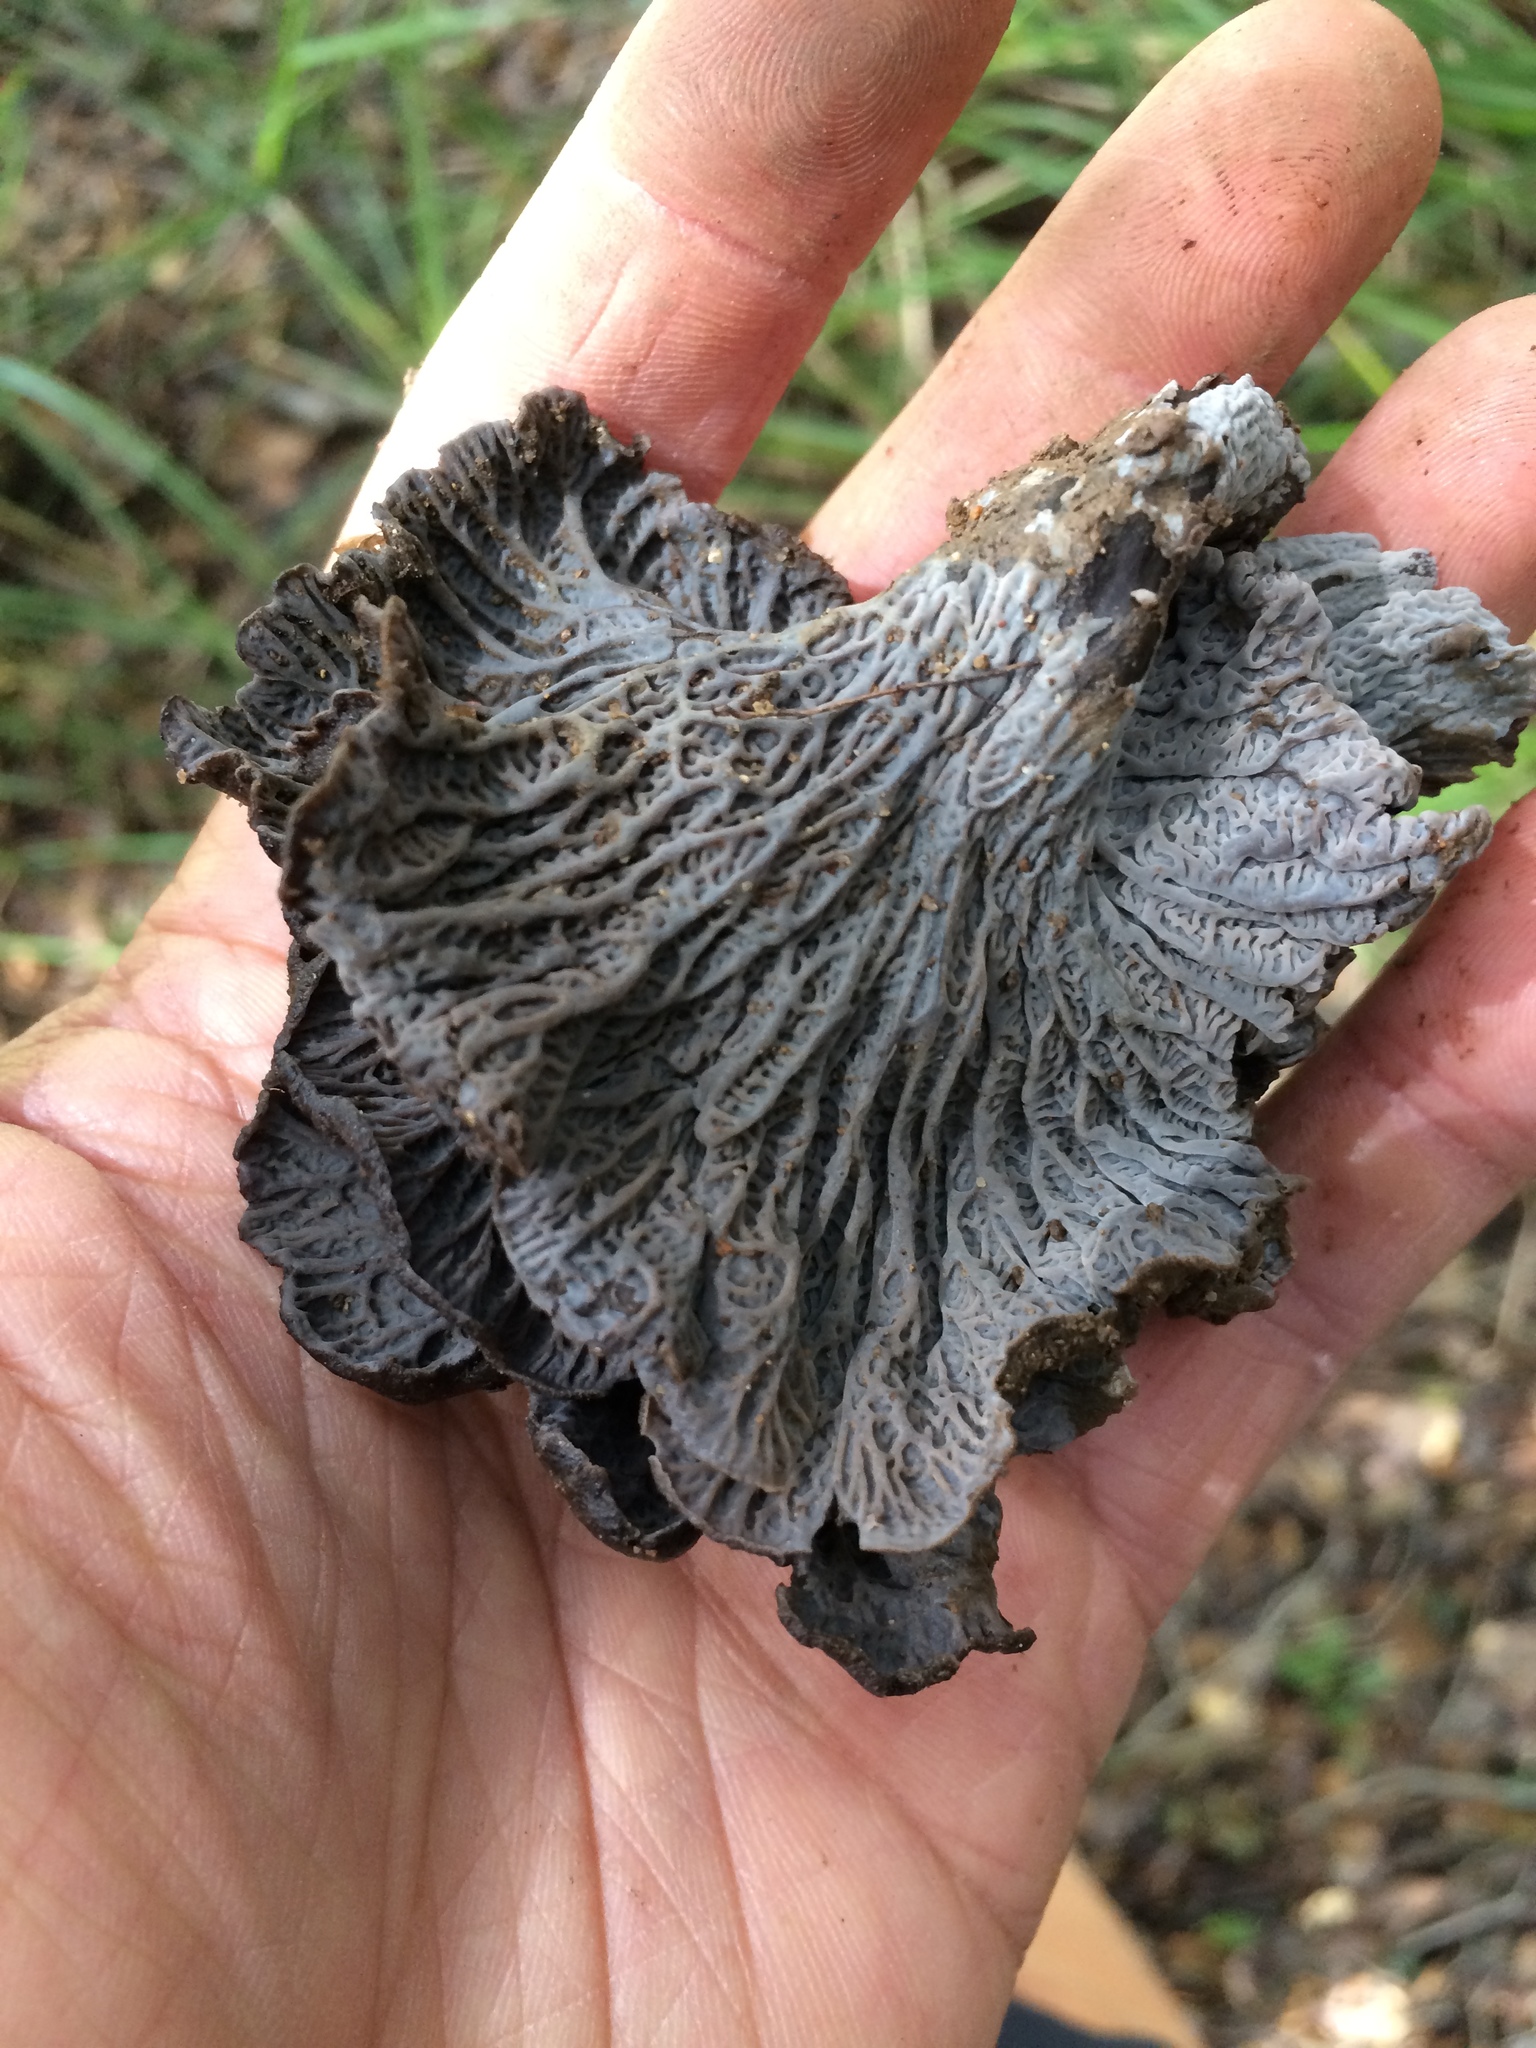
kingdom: Fungi
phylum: Basidiomycota
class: Agaricomycetes
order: Cantharellales
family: Hydnaceae
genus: Craterellus
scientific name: Craterellus atrocinereus
